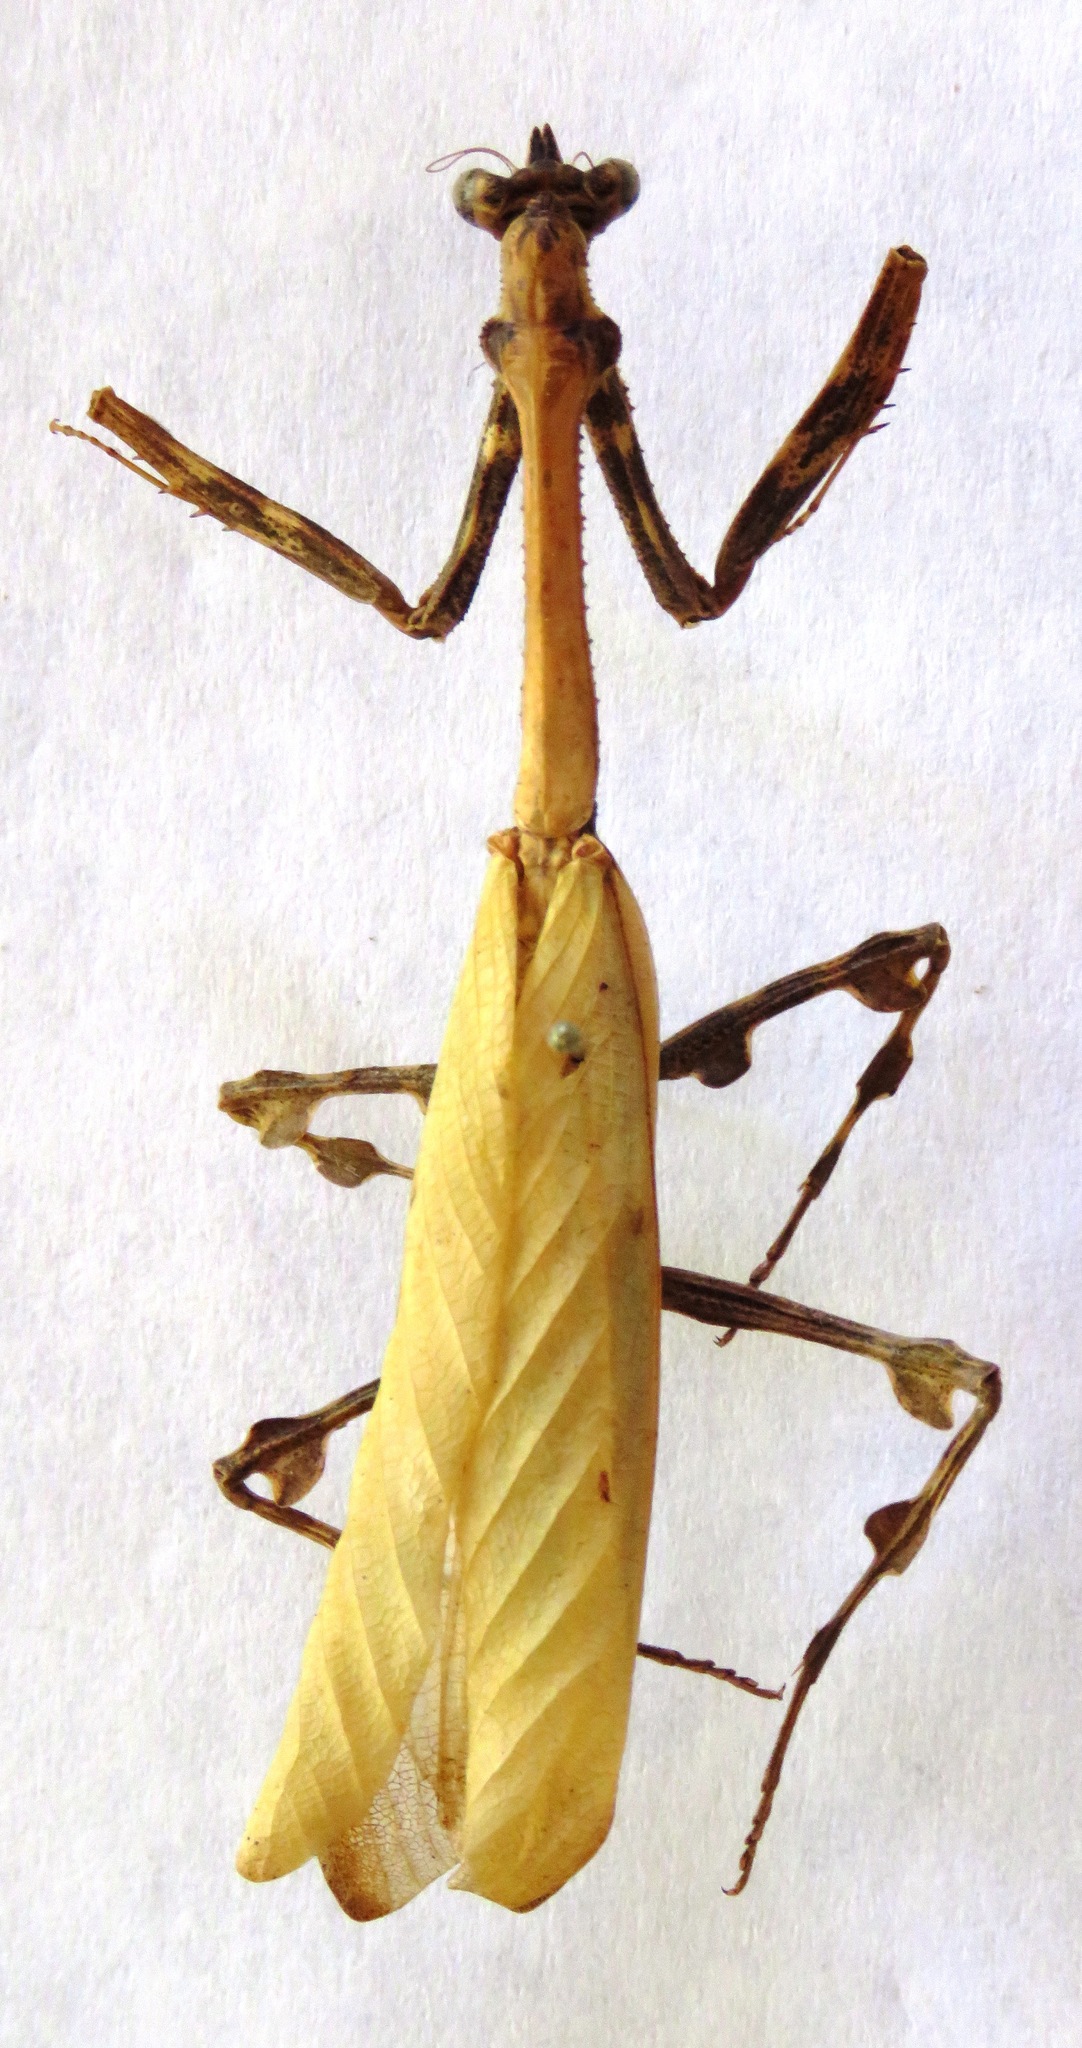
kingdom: Animalia
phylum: Arthropoda
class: Insecta
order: Mantodea
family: Mantidae
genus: Vates
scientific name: Vates pectinicornis
